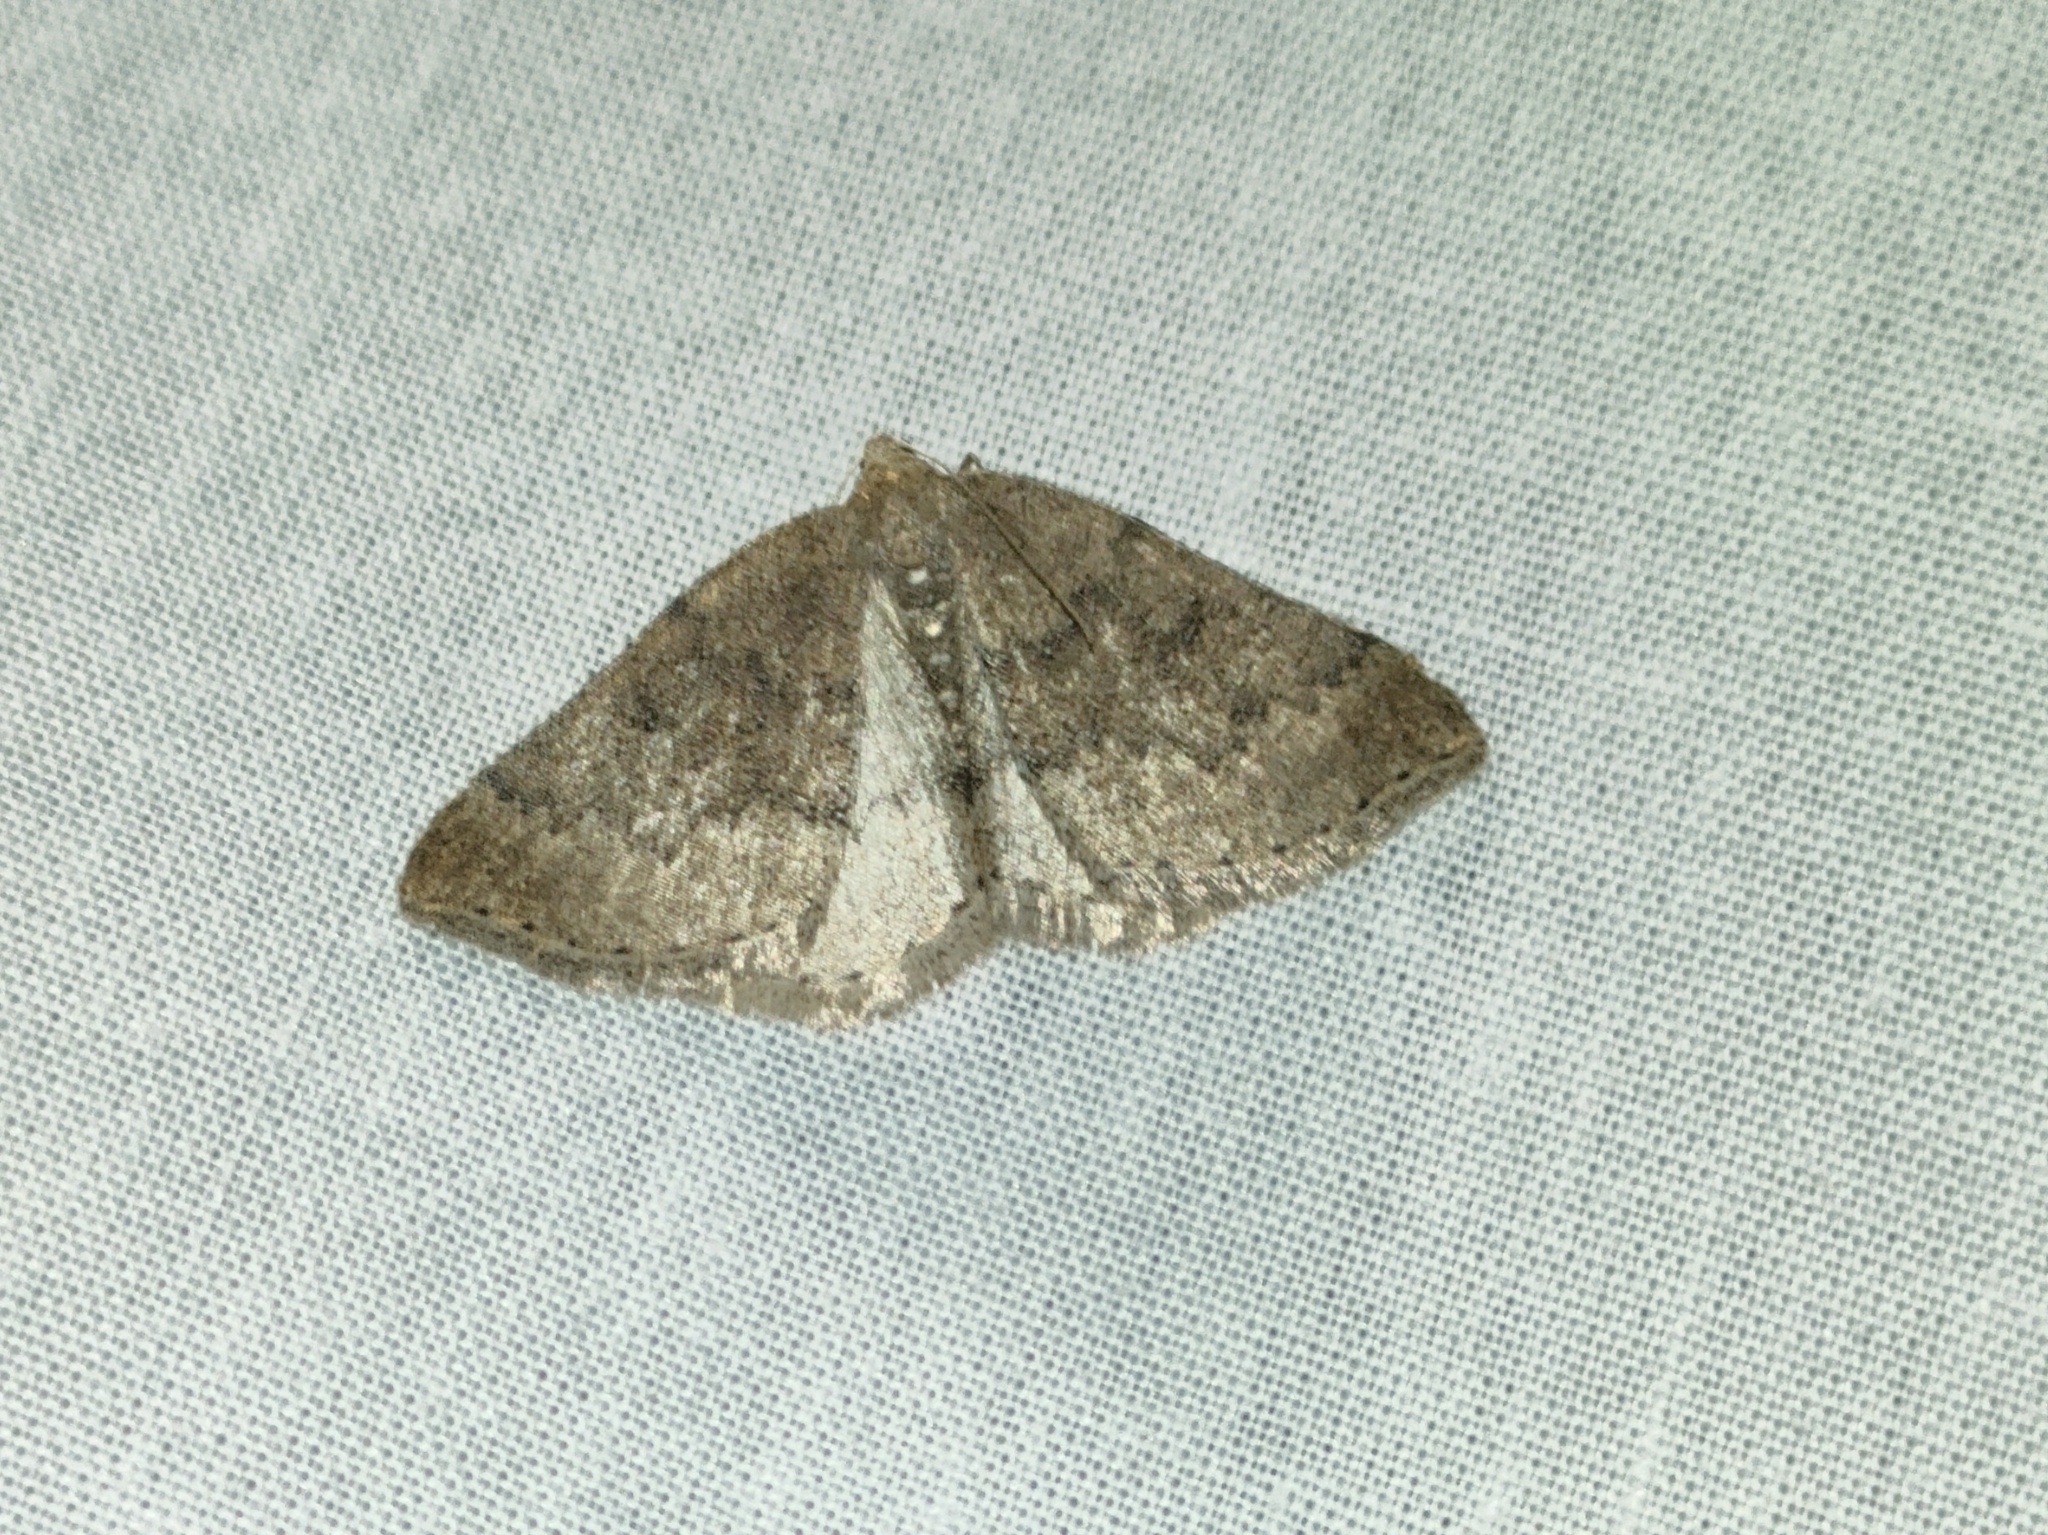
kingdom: Animalia
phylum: Arthropoda
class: Insecta
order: Lepidoptera
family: Geometridae
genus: Aleucis
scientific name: Aleucis distinctata
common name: Sloe carpet
